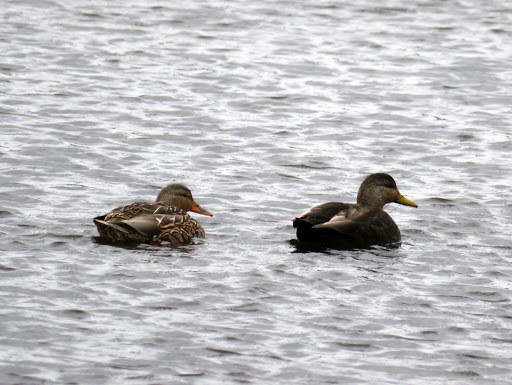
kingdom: Animalia
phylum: Chordata
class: Aves
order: Anseriformes
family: Anatidae
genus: Anas
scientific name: Anas rubripes
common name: American black duck
